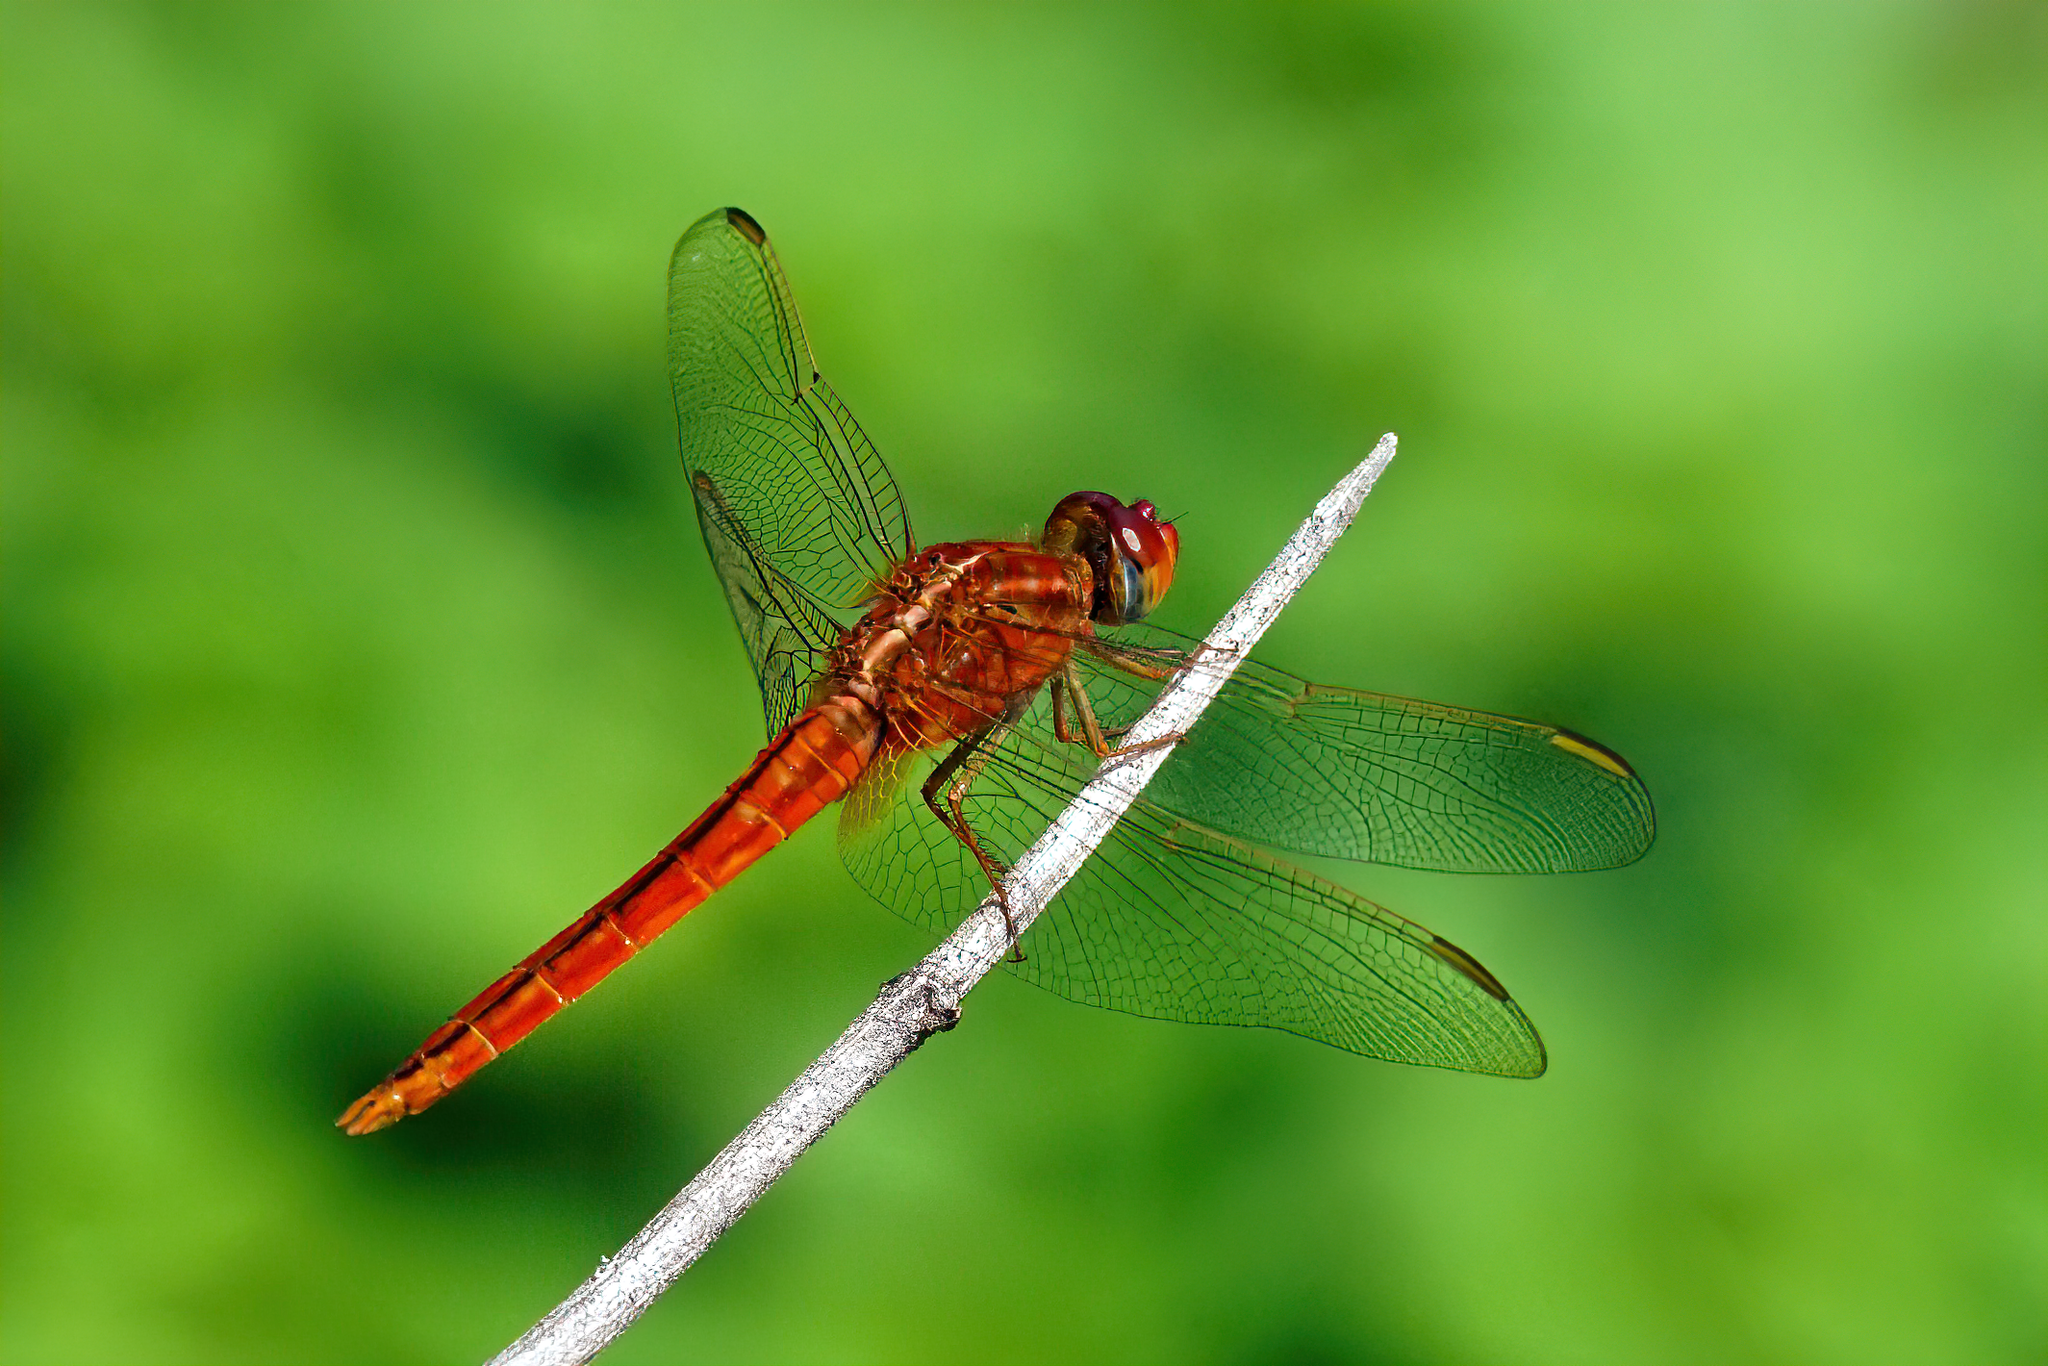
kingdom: Animalia
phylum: Arthropoda
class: Insecta
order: Odonata
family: Libellulidae
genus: Crocothemis
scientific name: Crocothemis servilia
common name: Scarlet skimmer
